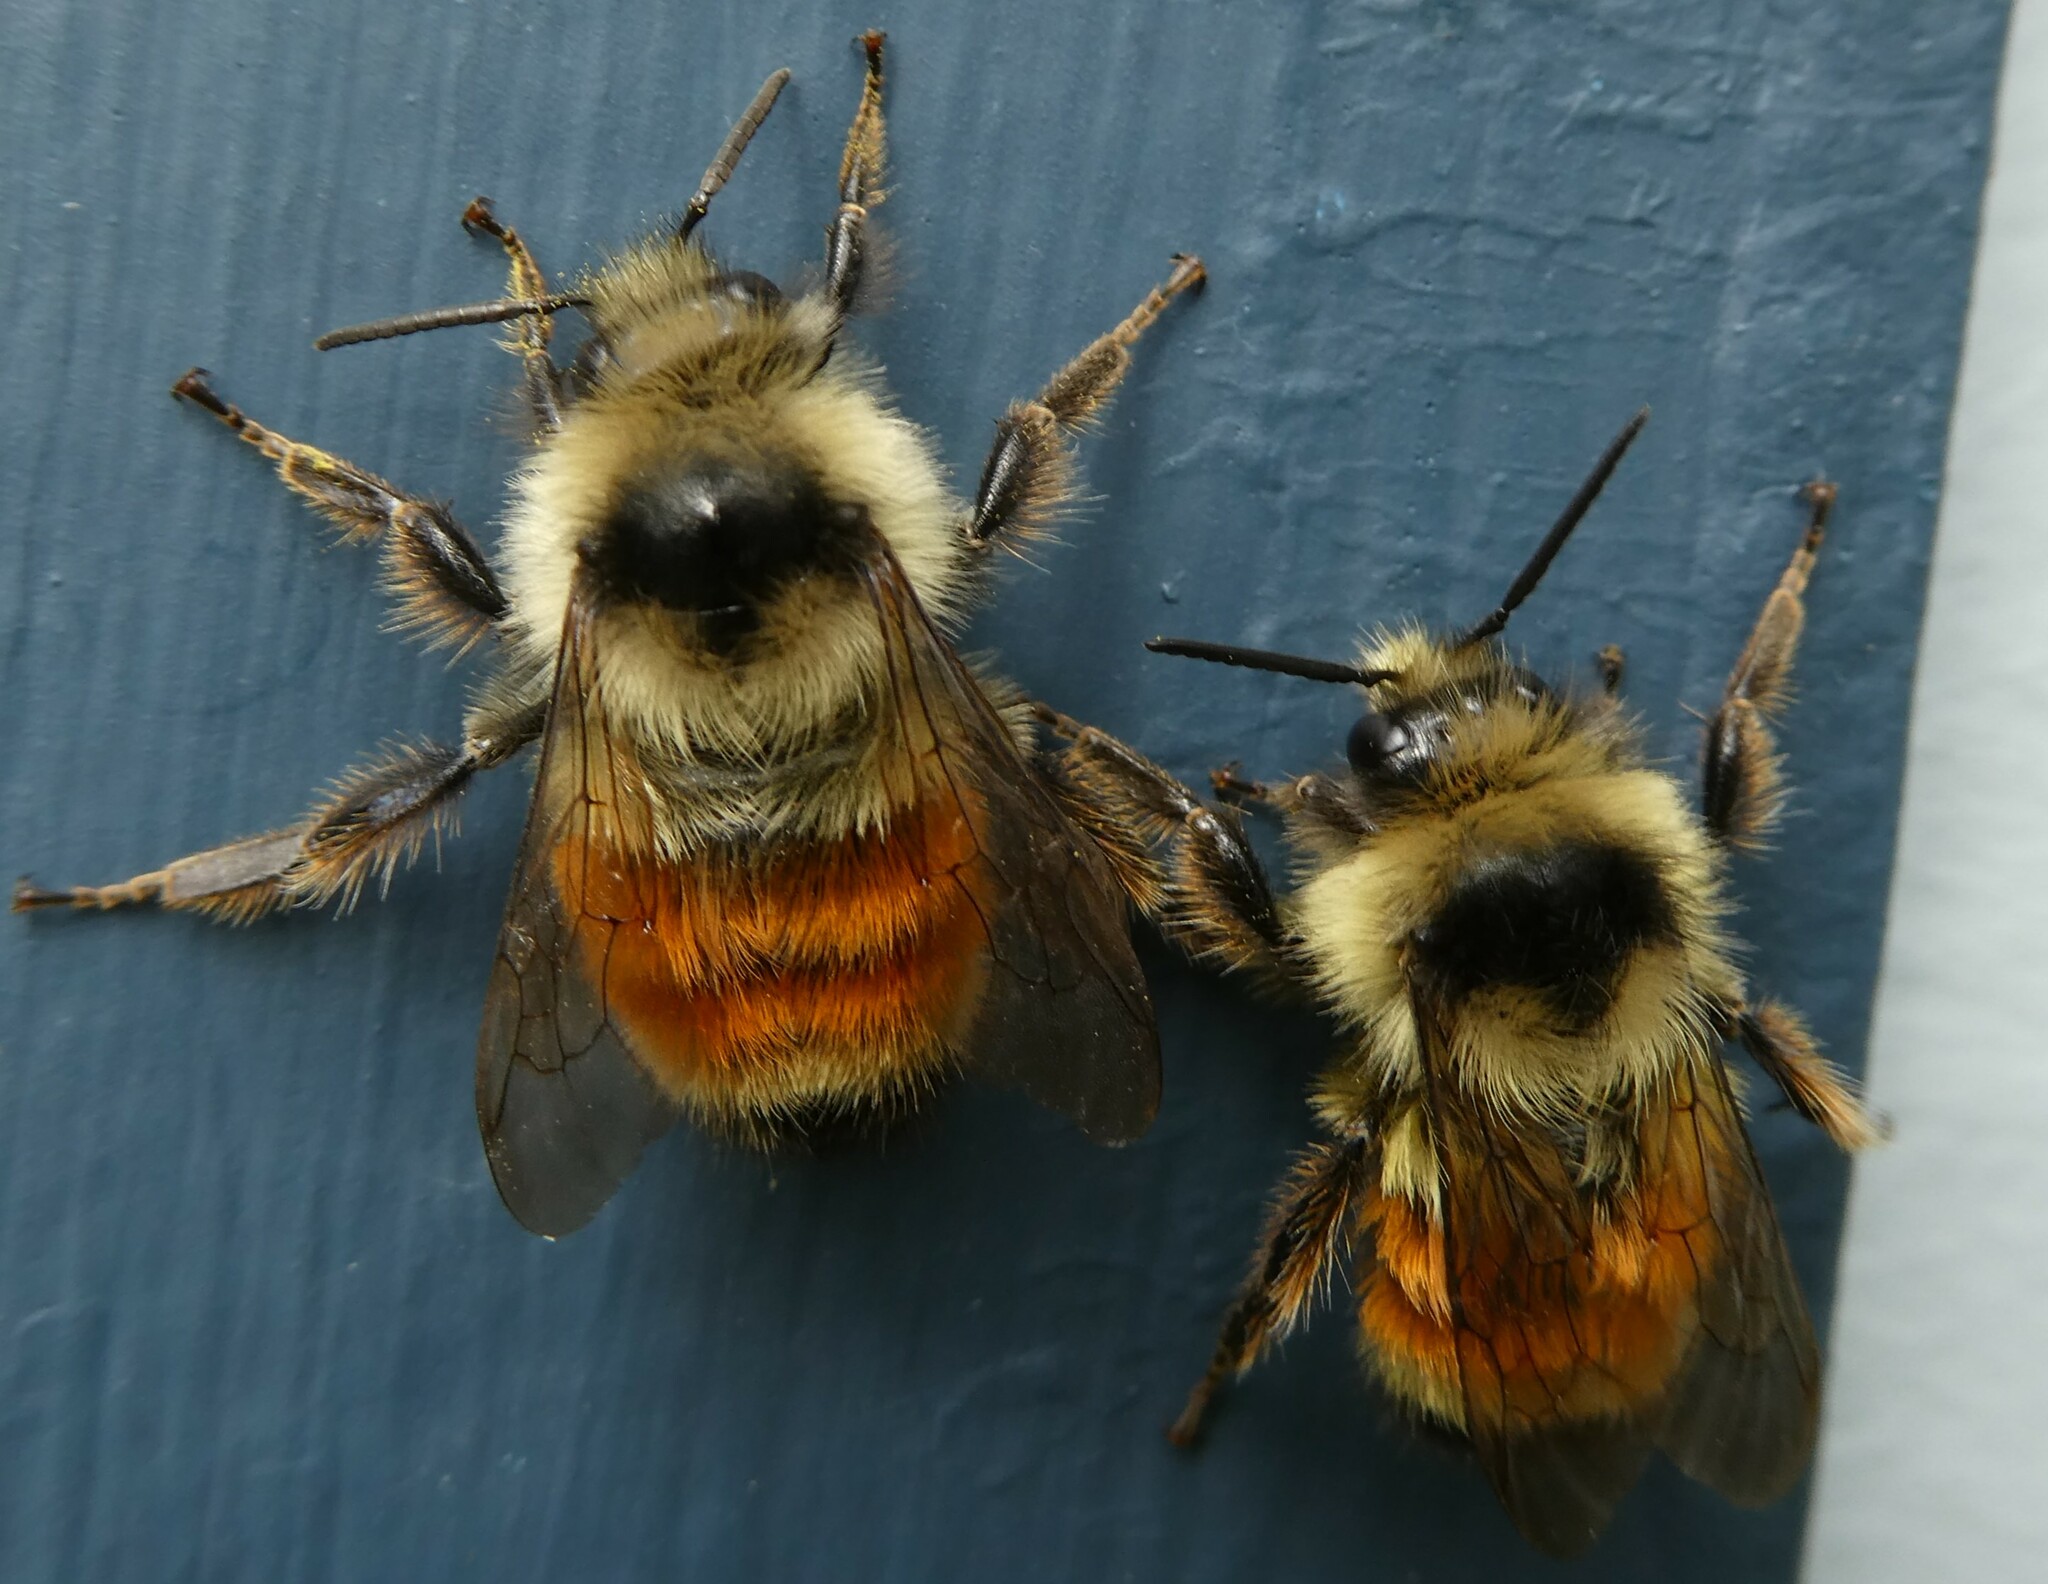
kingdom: Animalia
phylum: Arthropoda
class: Insecta
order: Hymenoptera
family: Apidae
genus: Bombus
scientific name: Bombus ternarius
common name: Tri-colored bumble bee
